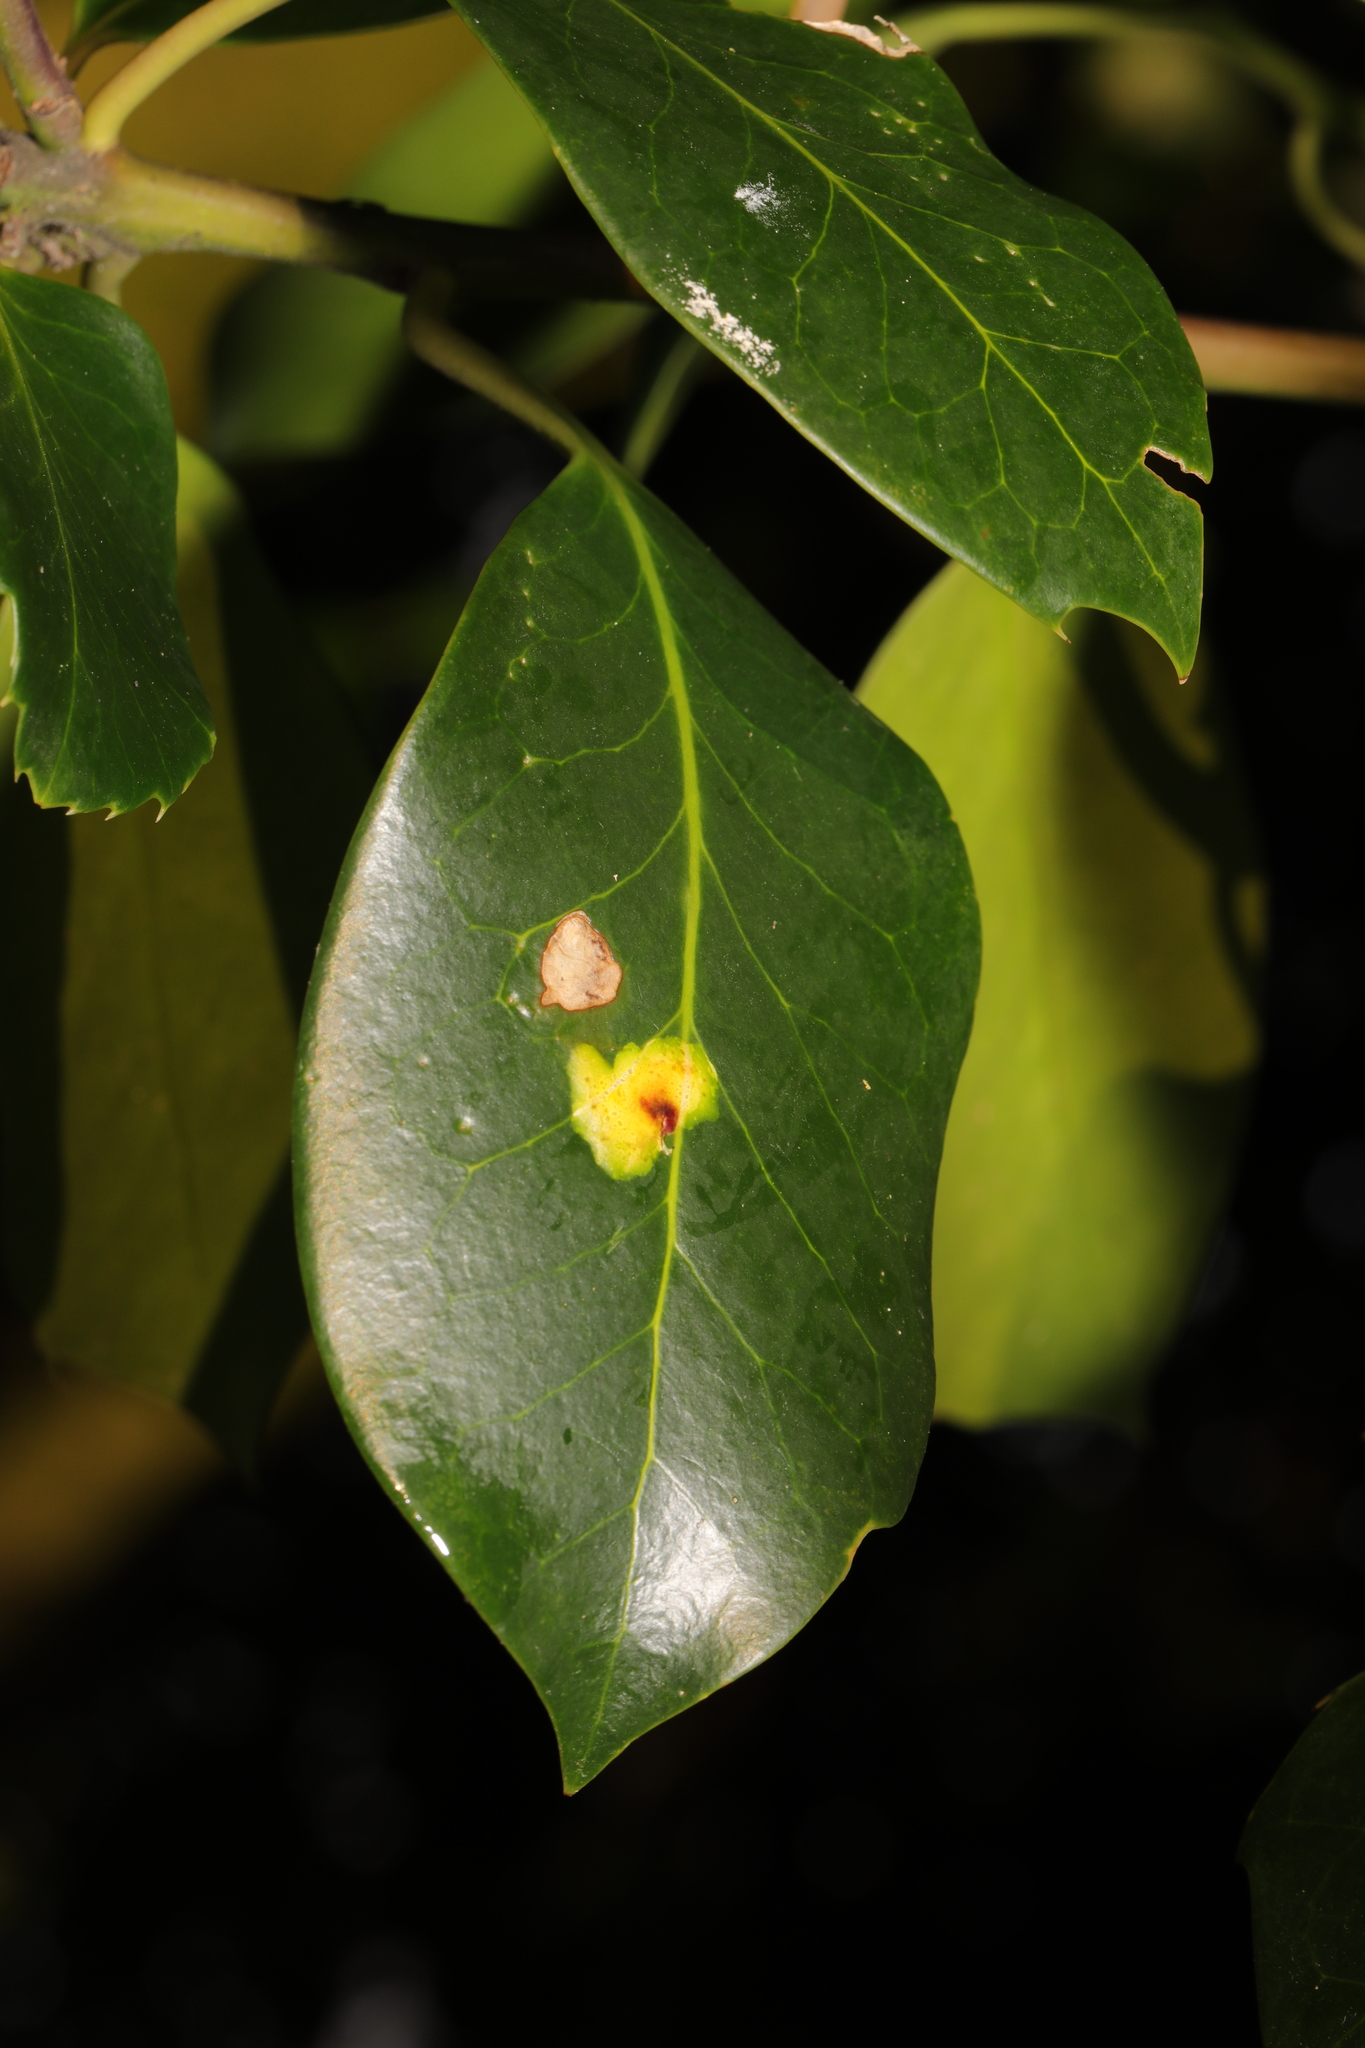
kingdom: Animalia
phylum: Arthropoda
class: Insecta
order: Diptera
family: Agromyzidae
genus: Phytomyza
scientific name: Phytomyza ilicis
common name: Holly leafminer
